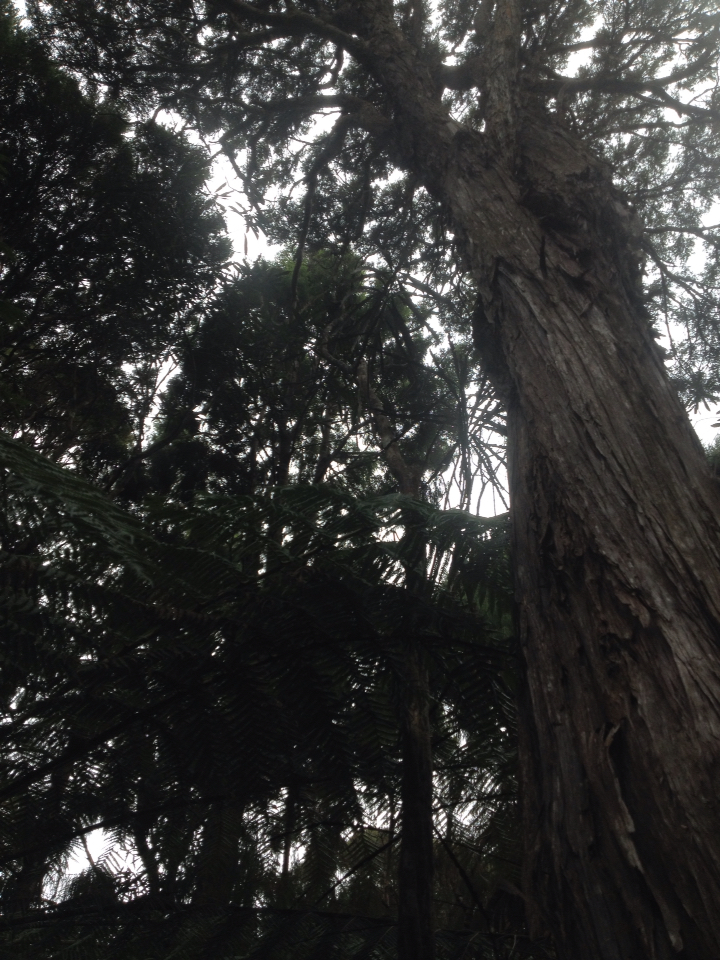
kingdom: Plantae
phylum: Tracheophyta
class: Magnoliopsida
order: Apiales
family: Araliaceae
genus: Pseudopanax
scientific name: Pseudopanax crassifolius
